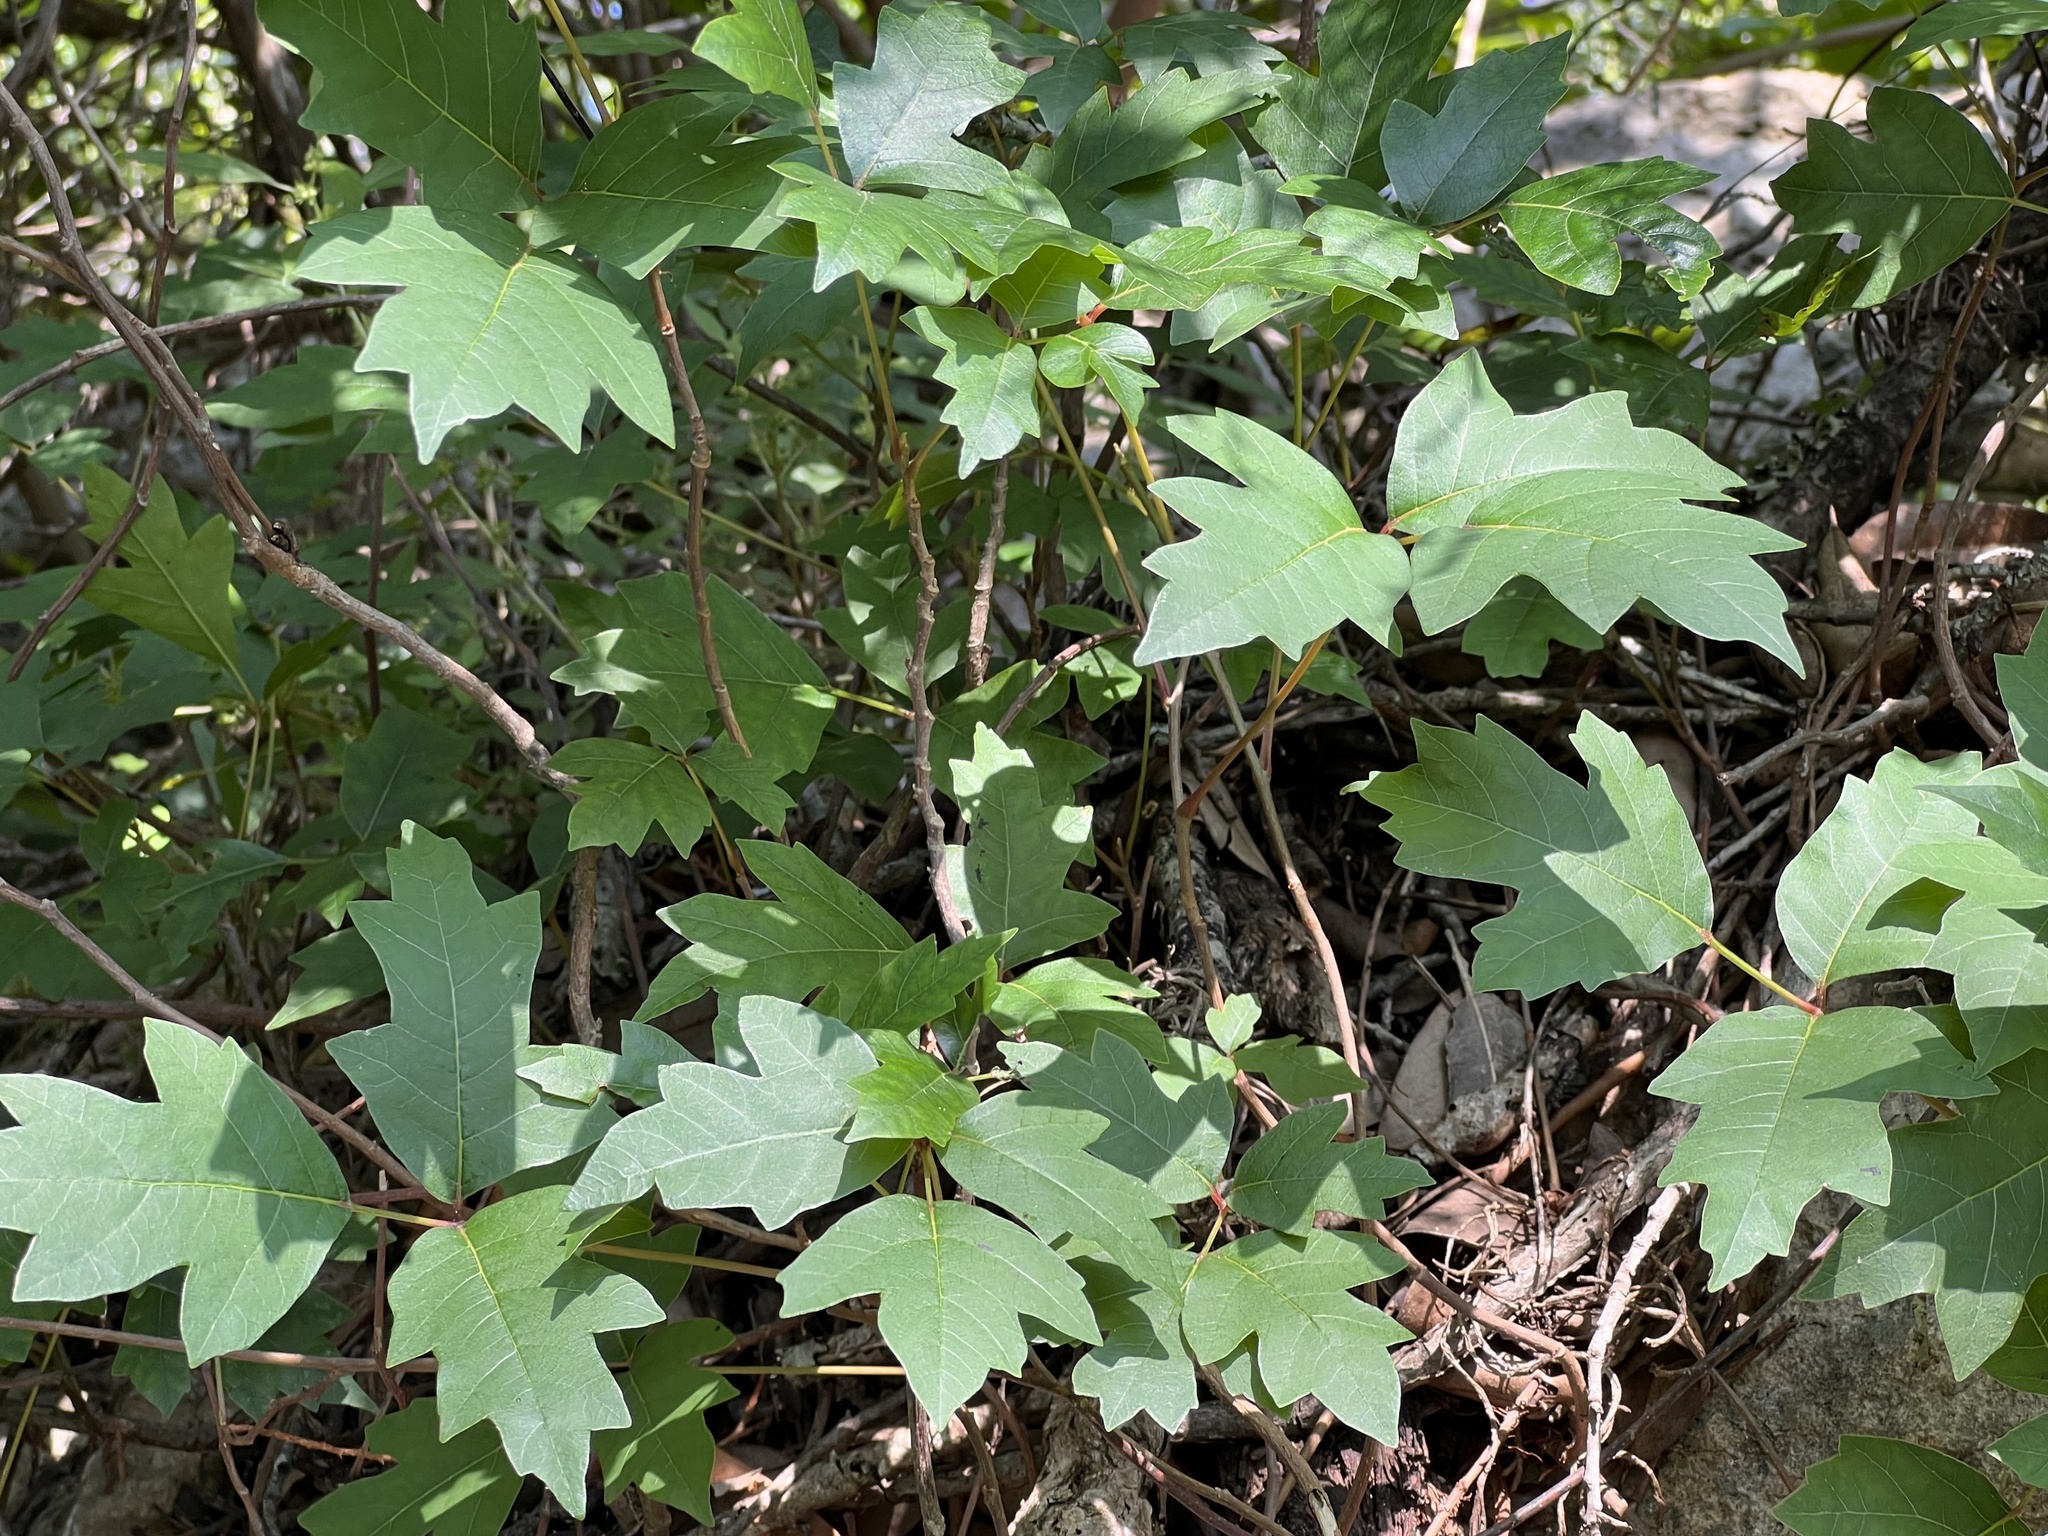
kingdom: Plantae
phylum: Tracheophyta
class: Magnoliopsida
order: Sapindales
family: Anacardiaceae
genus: Toxicodendron
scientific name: Toxicodendron radicans
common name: Poison ivy
